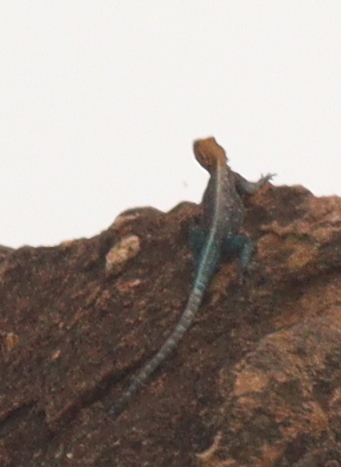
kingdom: Animalia
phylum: Chordata
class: Squamata
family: Agamidae
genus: Agama
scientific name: Agama lionotus
